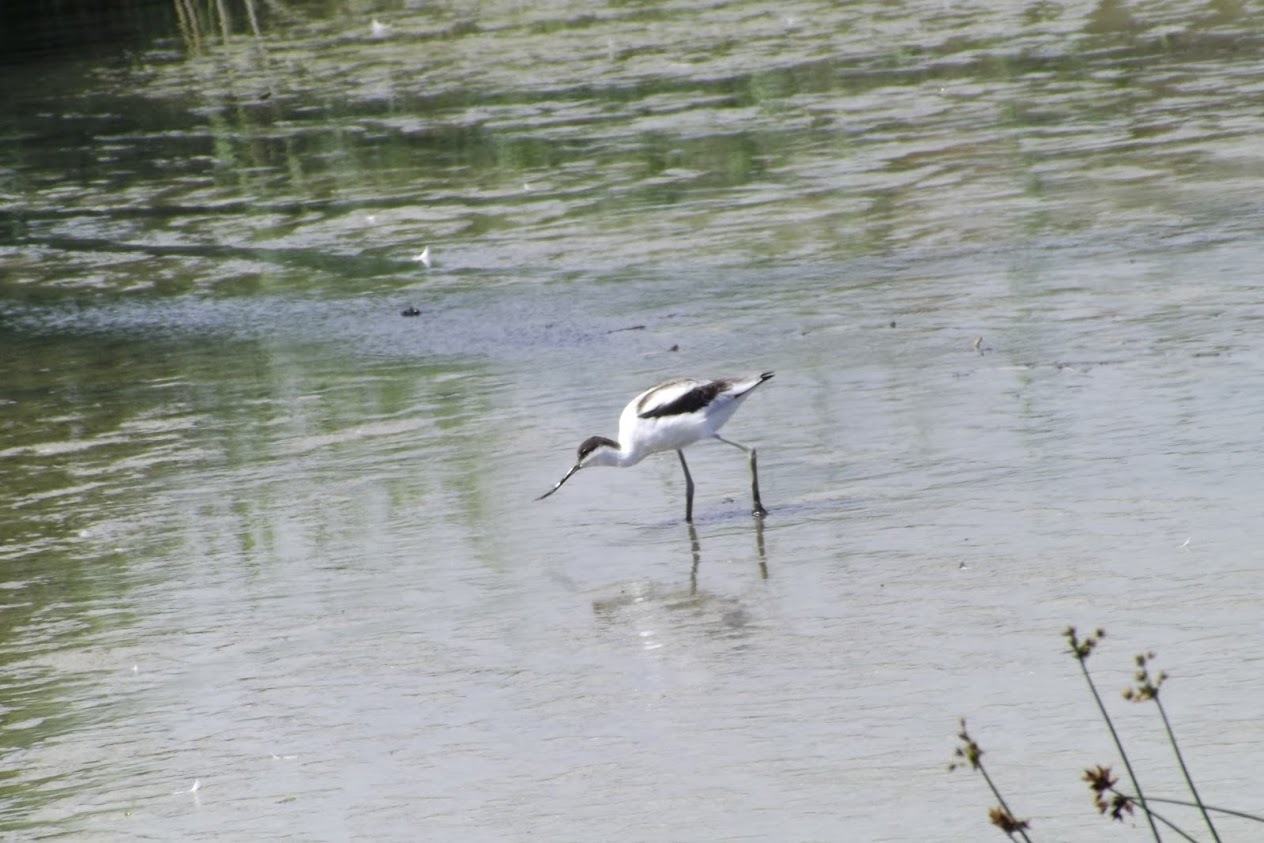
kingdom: Animalia
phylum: Chordata
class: Aves
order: Charadriiformes
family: Recurvirostridae
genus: Recurvirostra
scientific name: Recurvirostra avosetta
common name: Pied avocet
